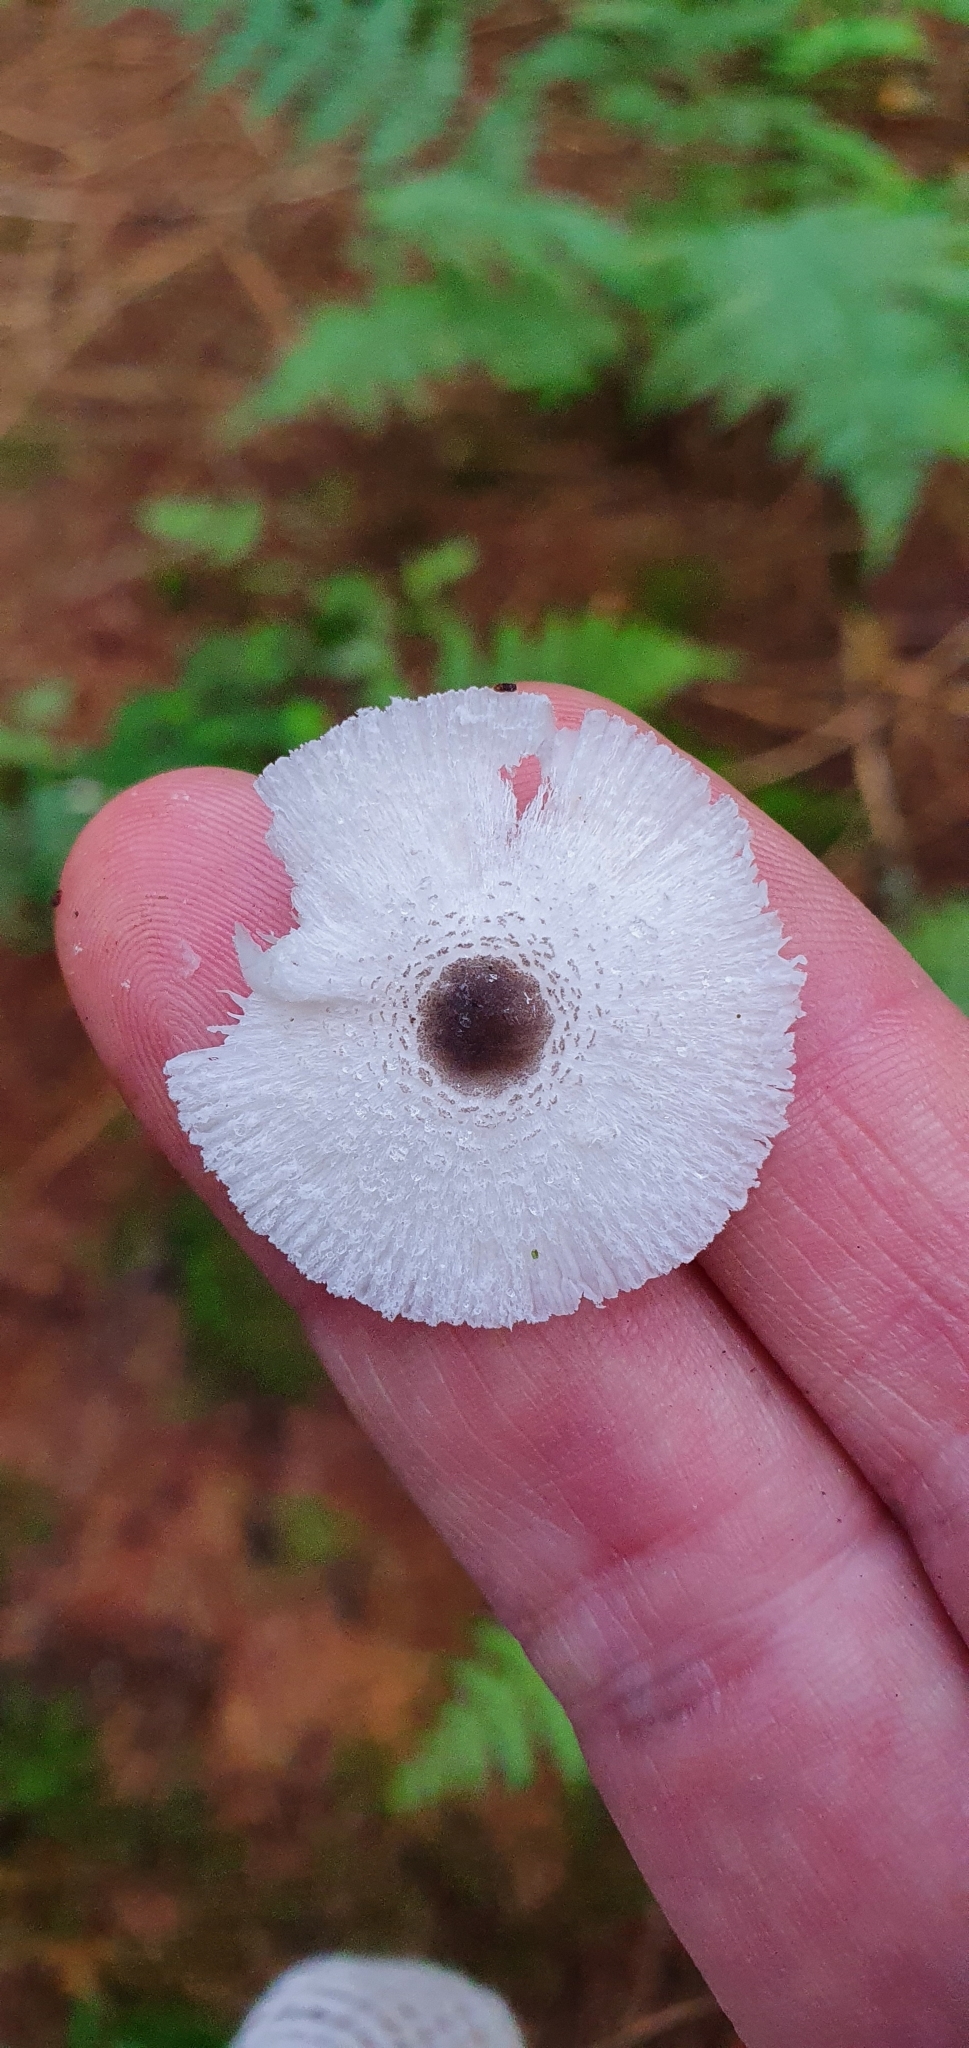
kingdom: Fungi
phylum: Basidiomycota
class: Agaricomycetes
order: Agaricales
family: Agaricaceae
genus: Leucocoprinus
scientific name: Leucocoprinus brebissonii
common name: Skullcap dapperling
